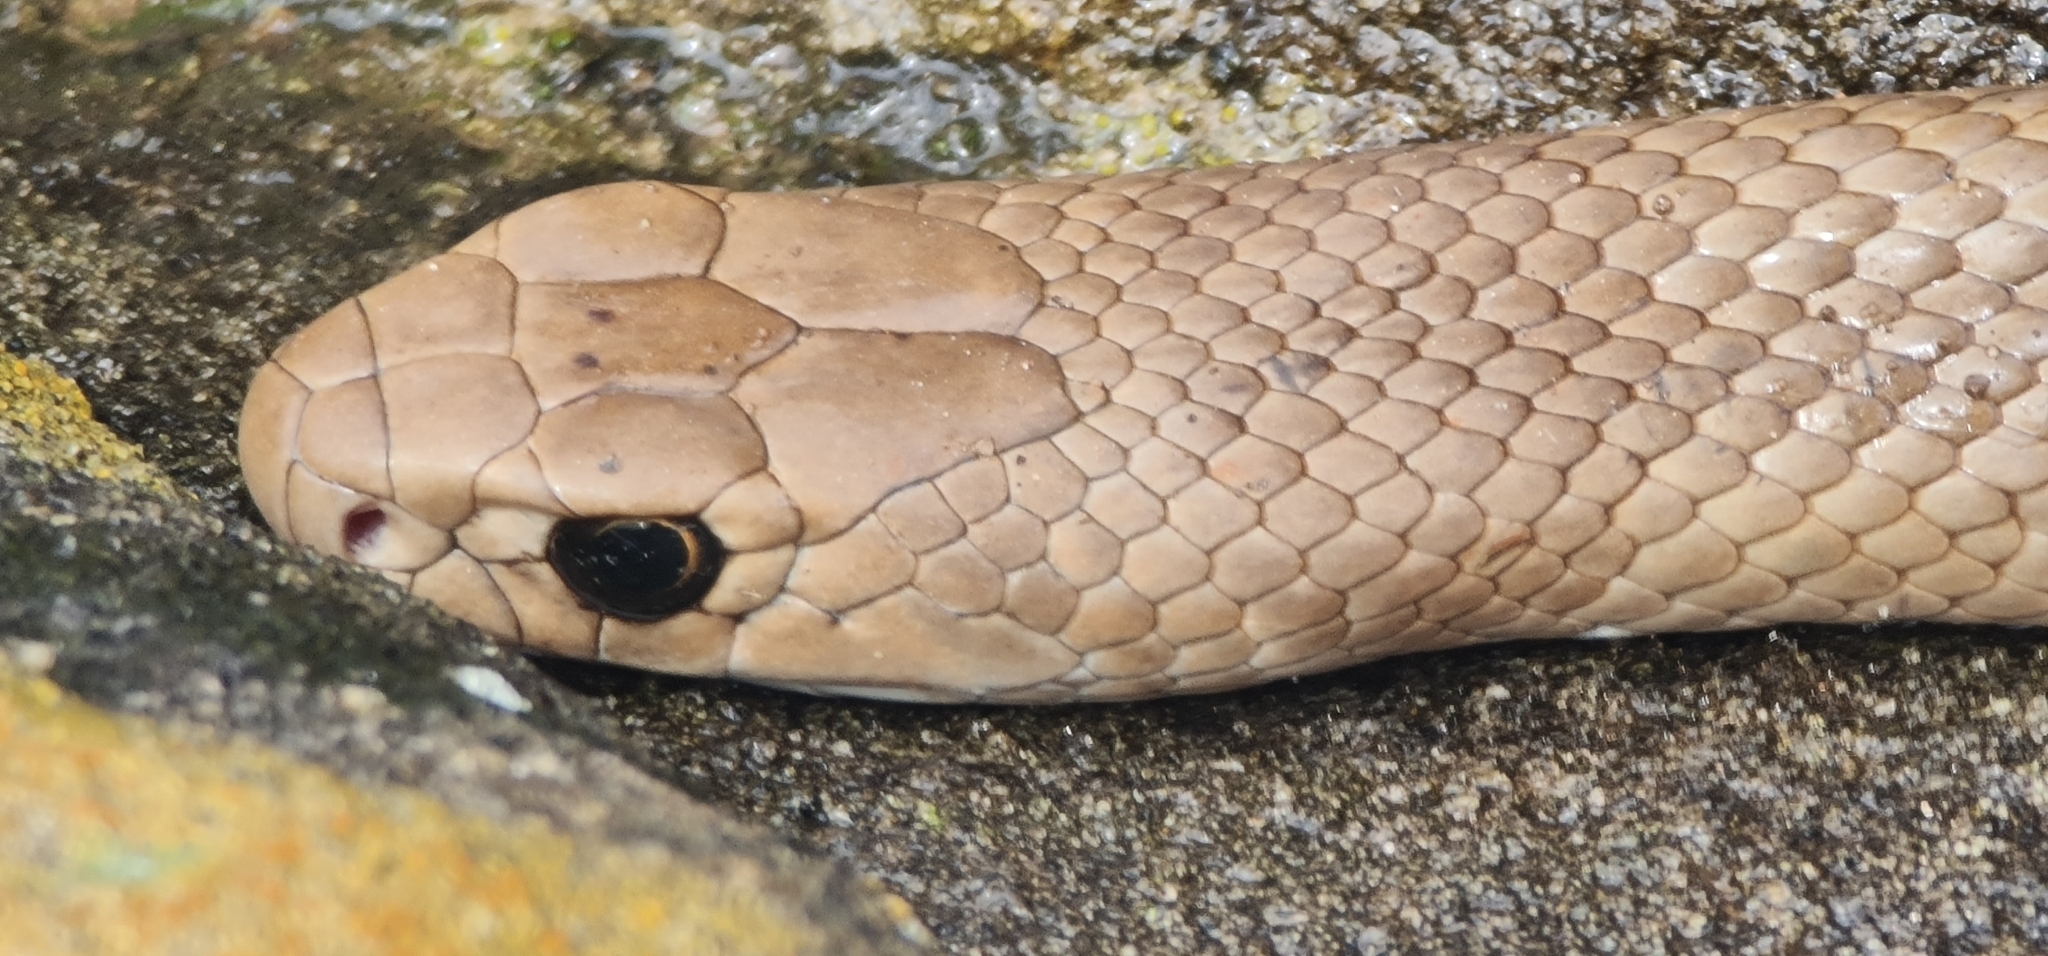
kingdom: Animalia
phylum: Chordata
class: Squamata
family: Elapidae
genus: Pseudonaja
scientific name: Pseudonaja textilis
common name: Eastern brown snake
